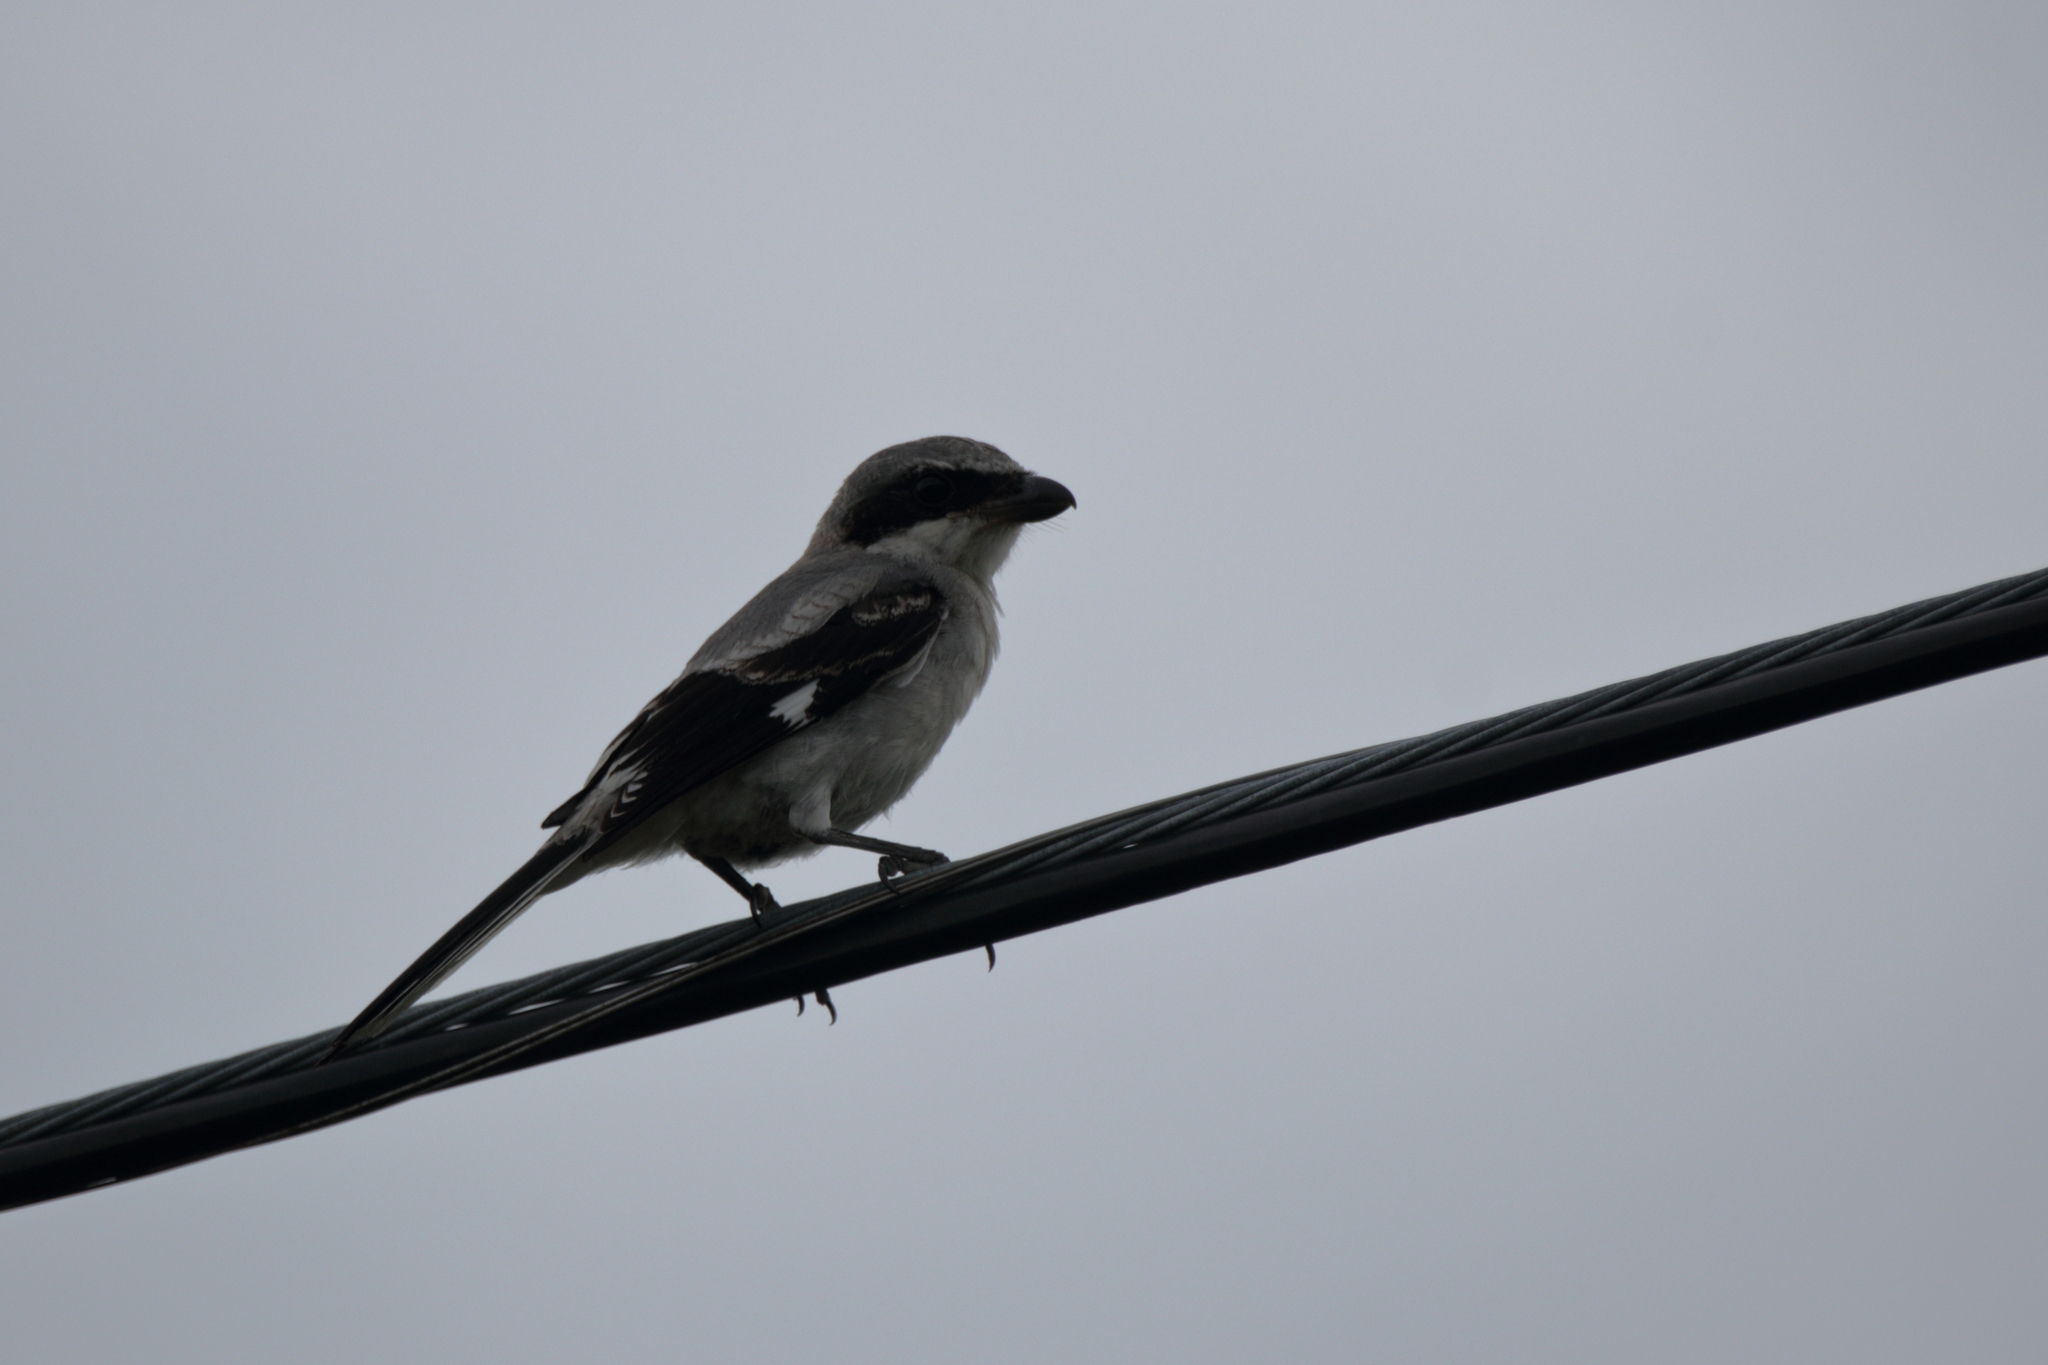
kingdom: Animalia
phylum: Chordata
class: Aves
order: Passeriformes
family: Laniidae
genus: Lanius
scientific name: Lanius ludovicianus
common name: Loggerhead shrike
